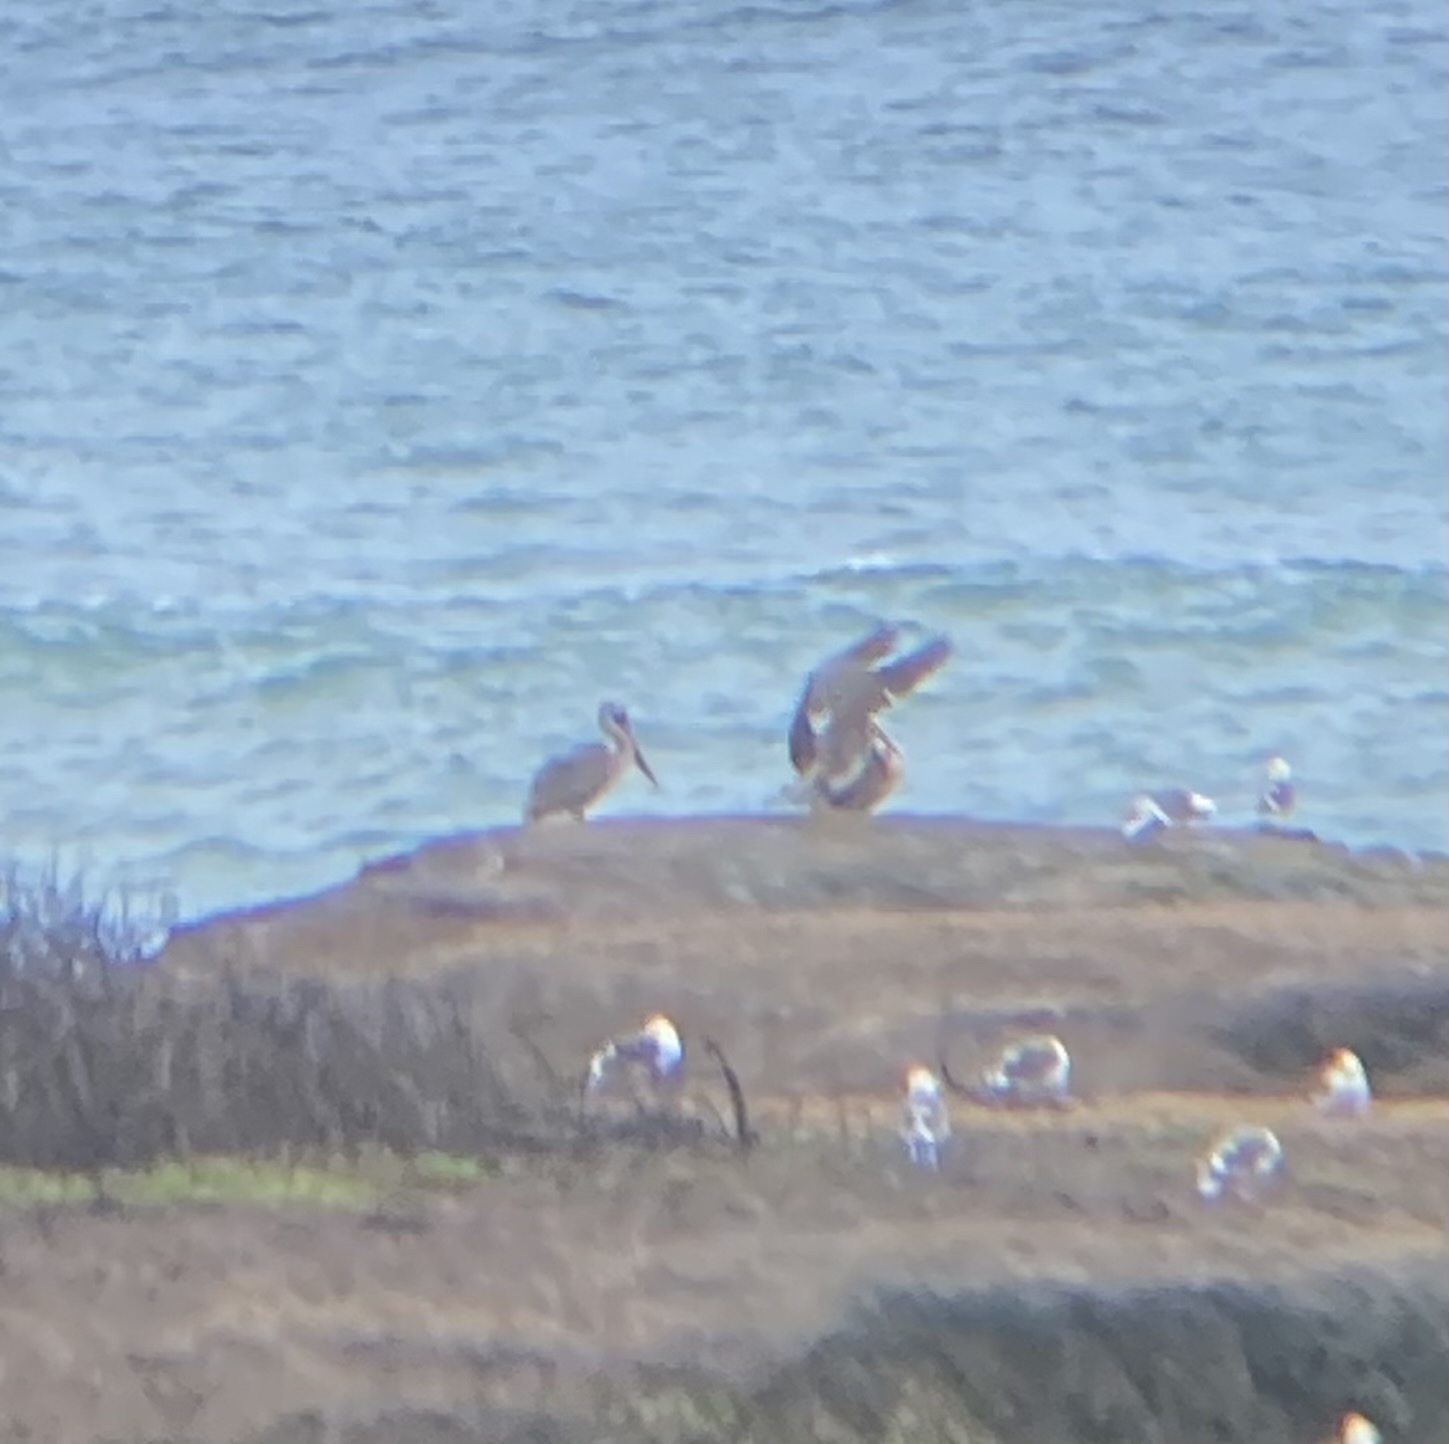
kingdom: Animalia
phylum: Chordata
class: Aves
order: Pelecaniformes
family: Pelecanidae
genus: Pelecanus
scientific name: Pelecanus occidentalis
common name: Brown pelican
